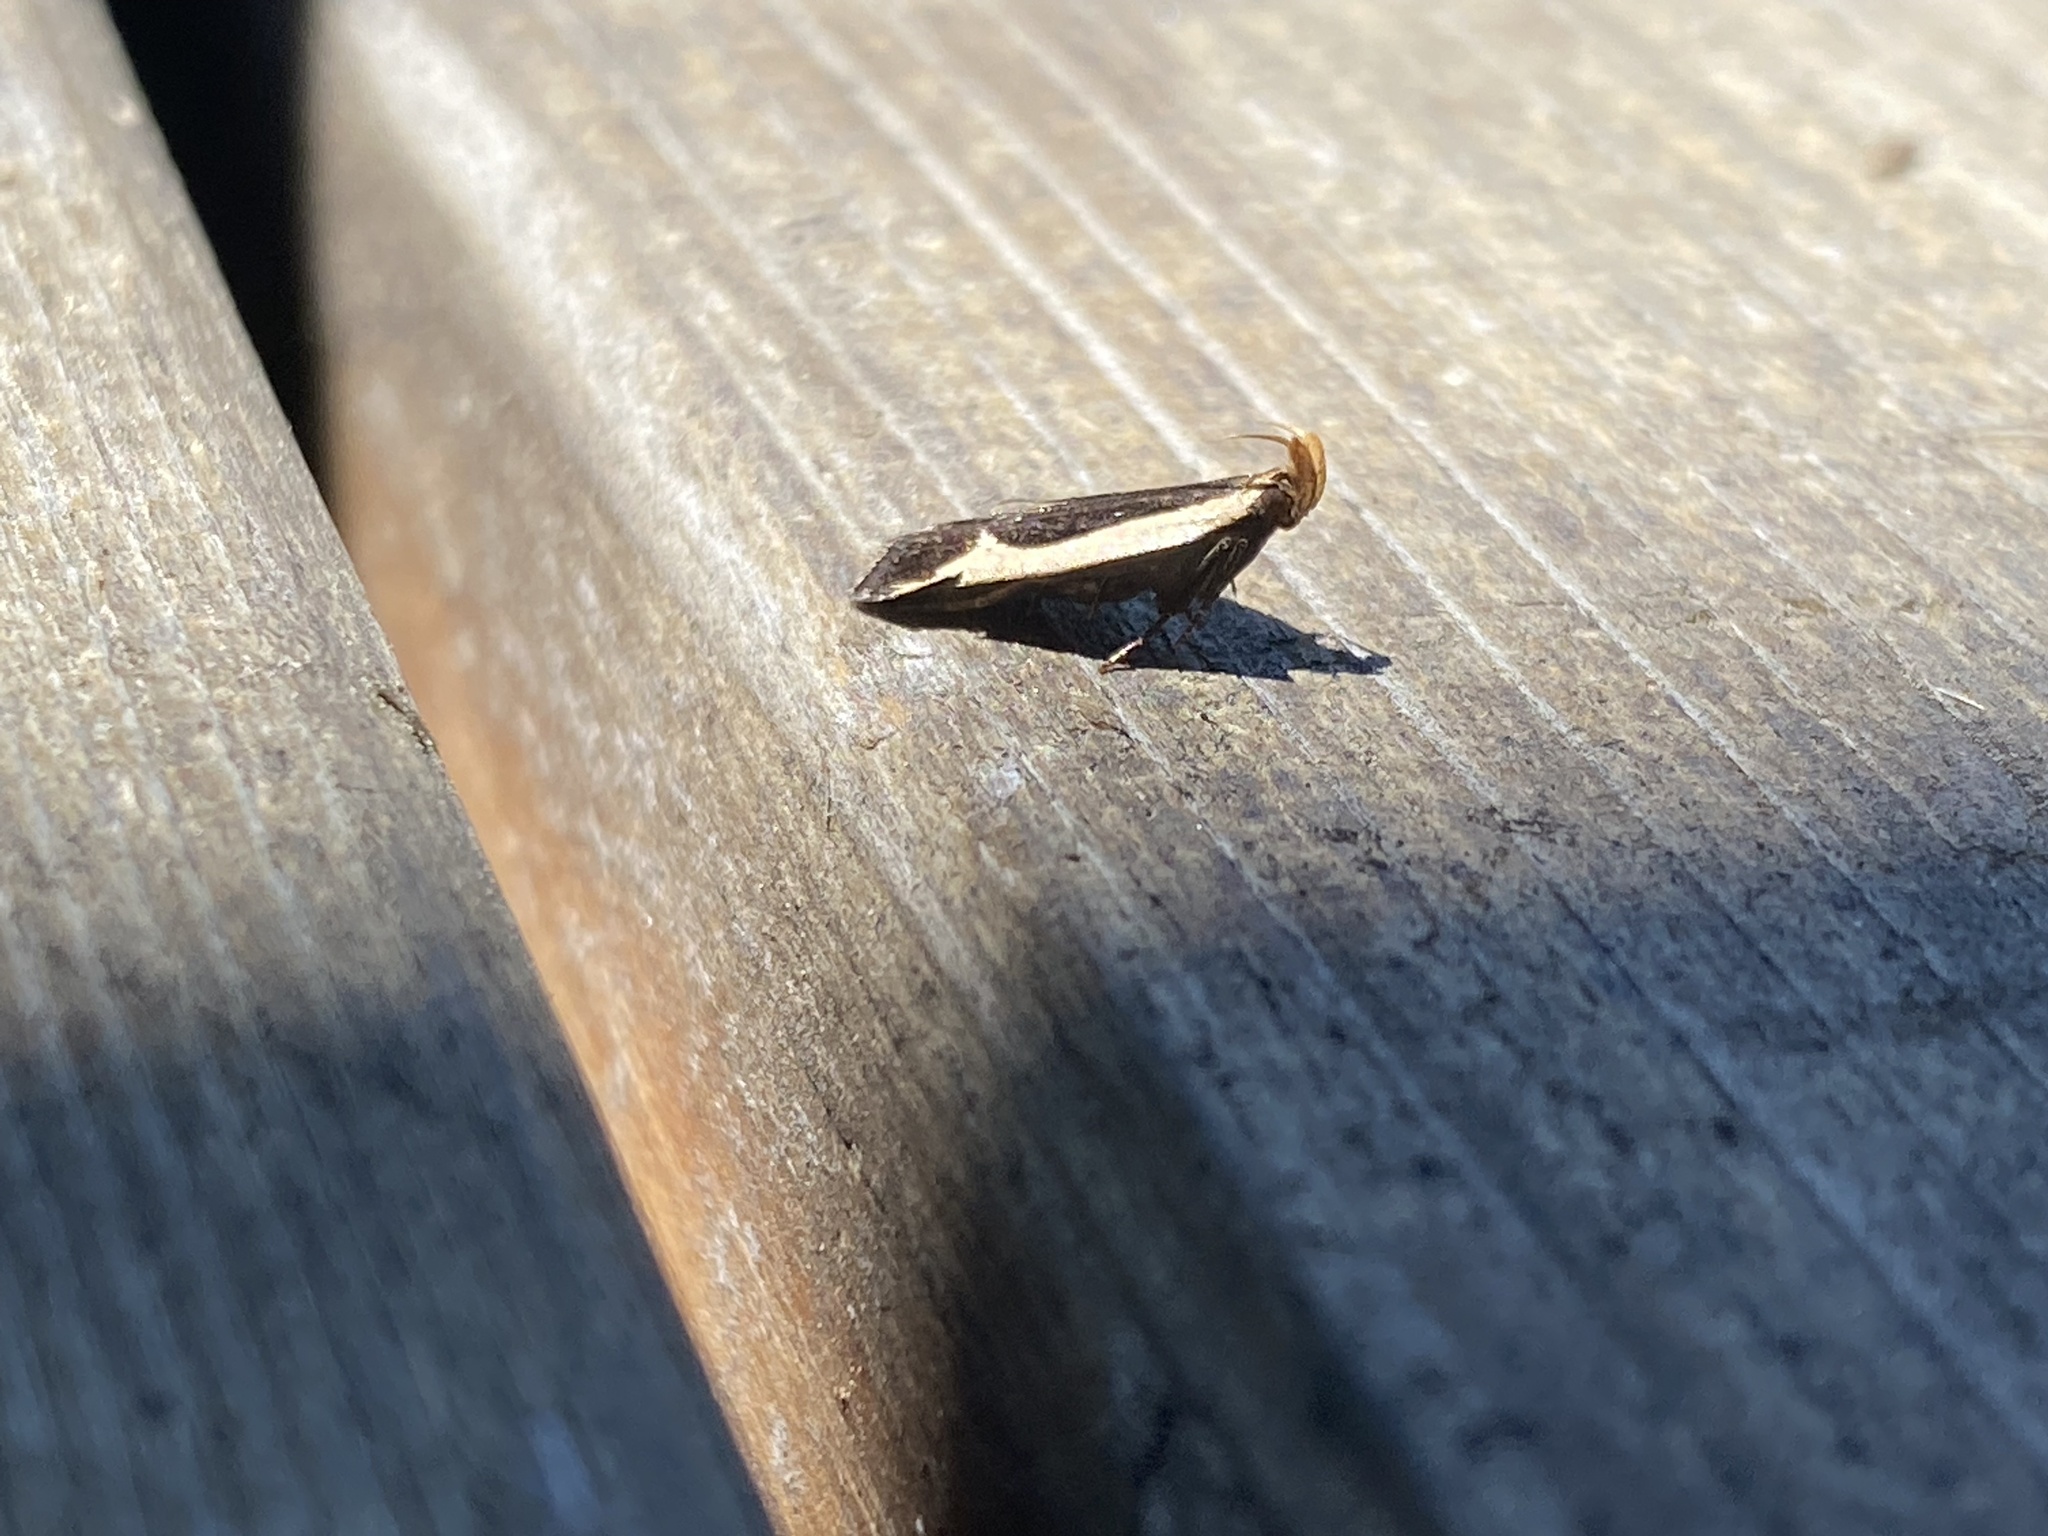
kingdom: Animalia
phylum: Arthropoda
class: Insecta
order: Lepidoptera
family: Gelechiidae
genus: Dichomeris
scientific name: Dichomeris flavocostella
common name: Cream-edged dichomeris moth
